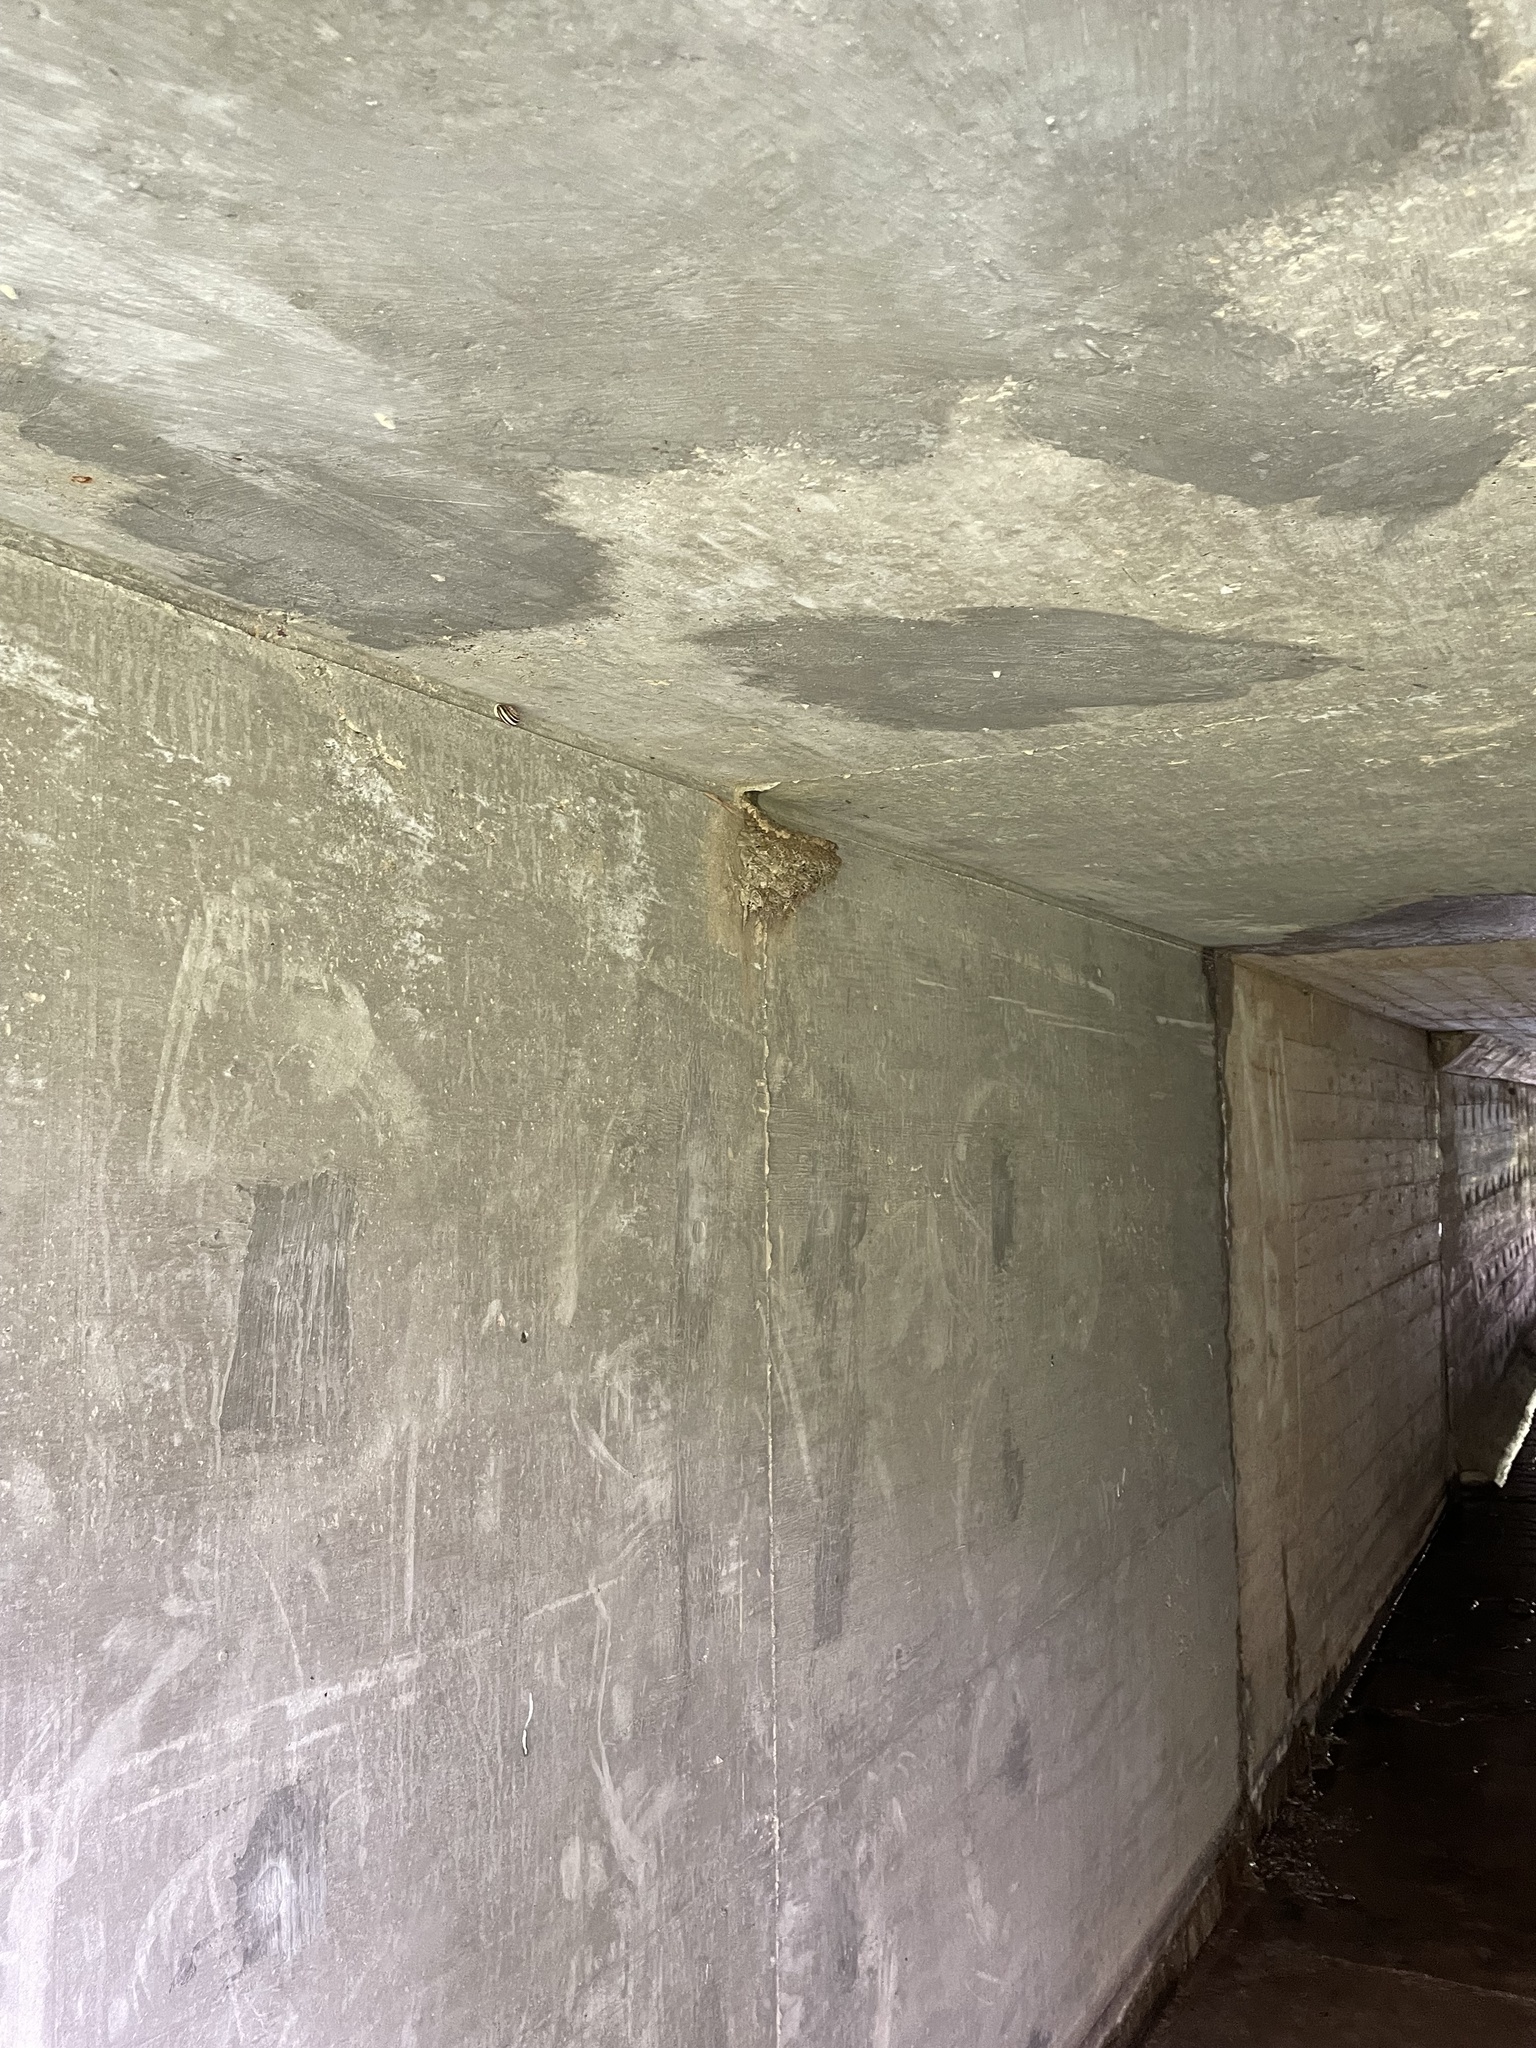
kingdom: Animalia
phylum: Chordata
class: Aves
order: Passeriformes
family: Hirundinidae
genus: Hirundo
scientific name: Hirundo rustica
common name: Barn swallow
